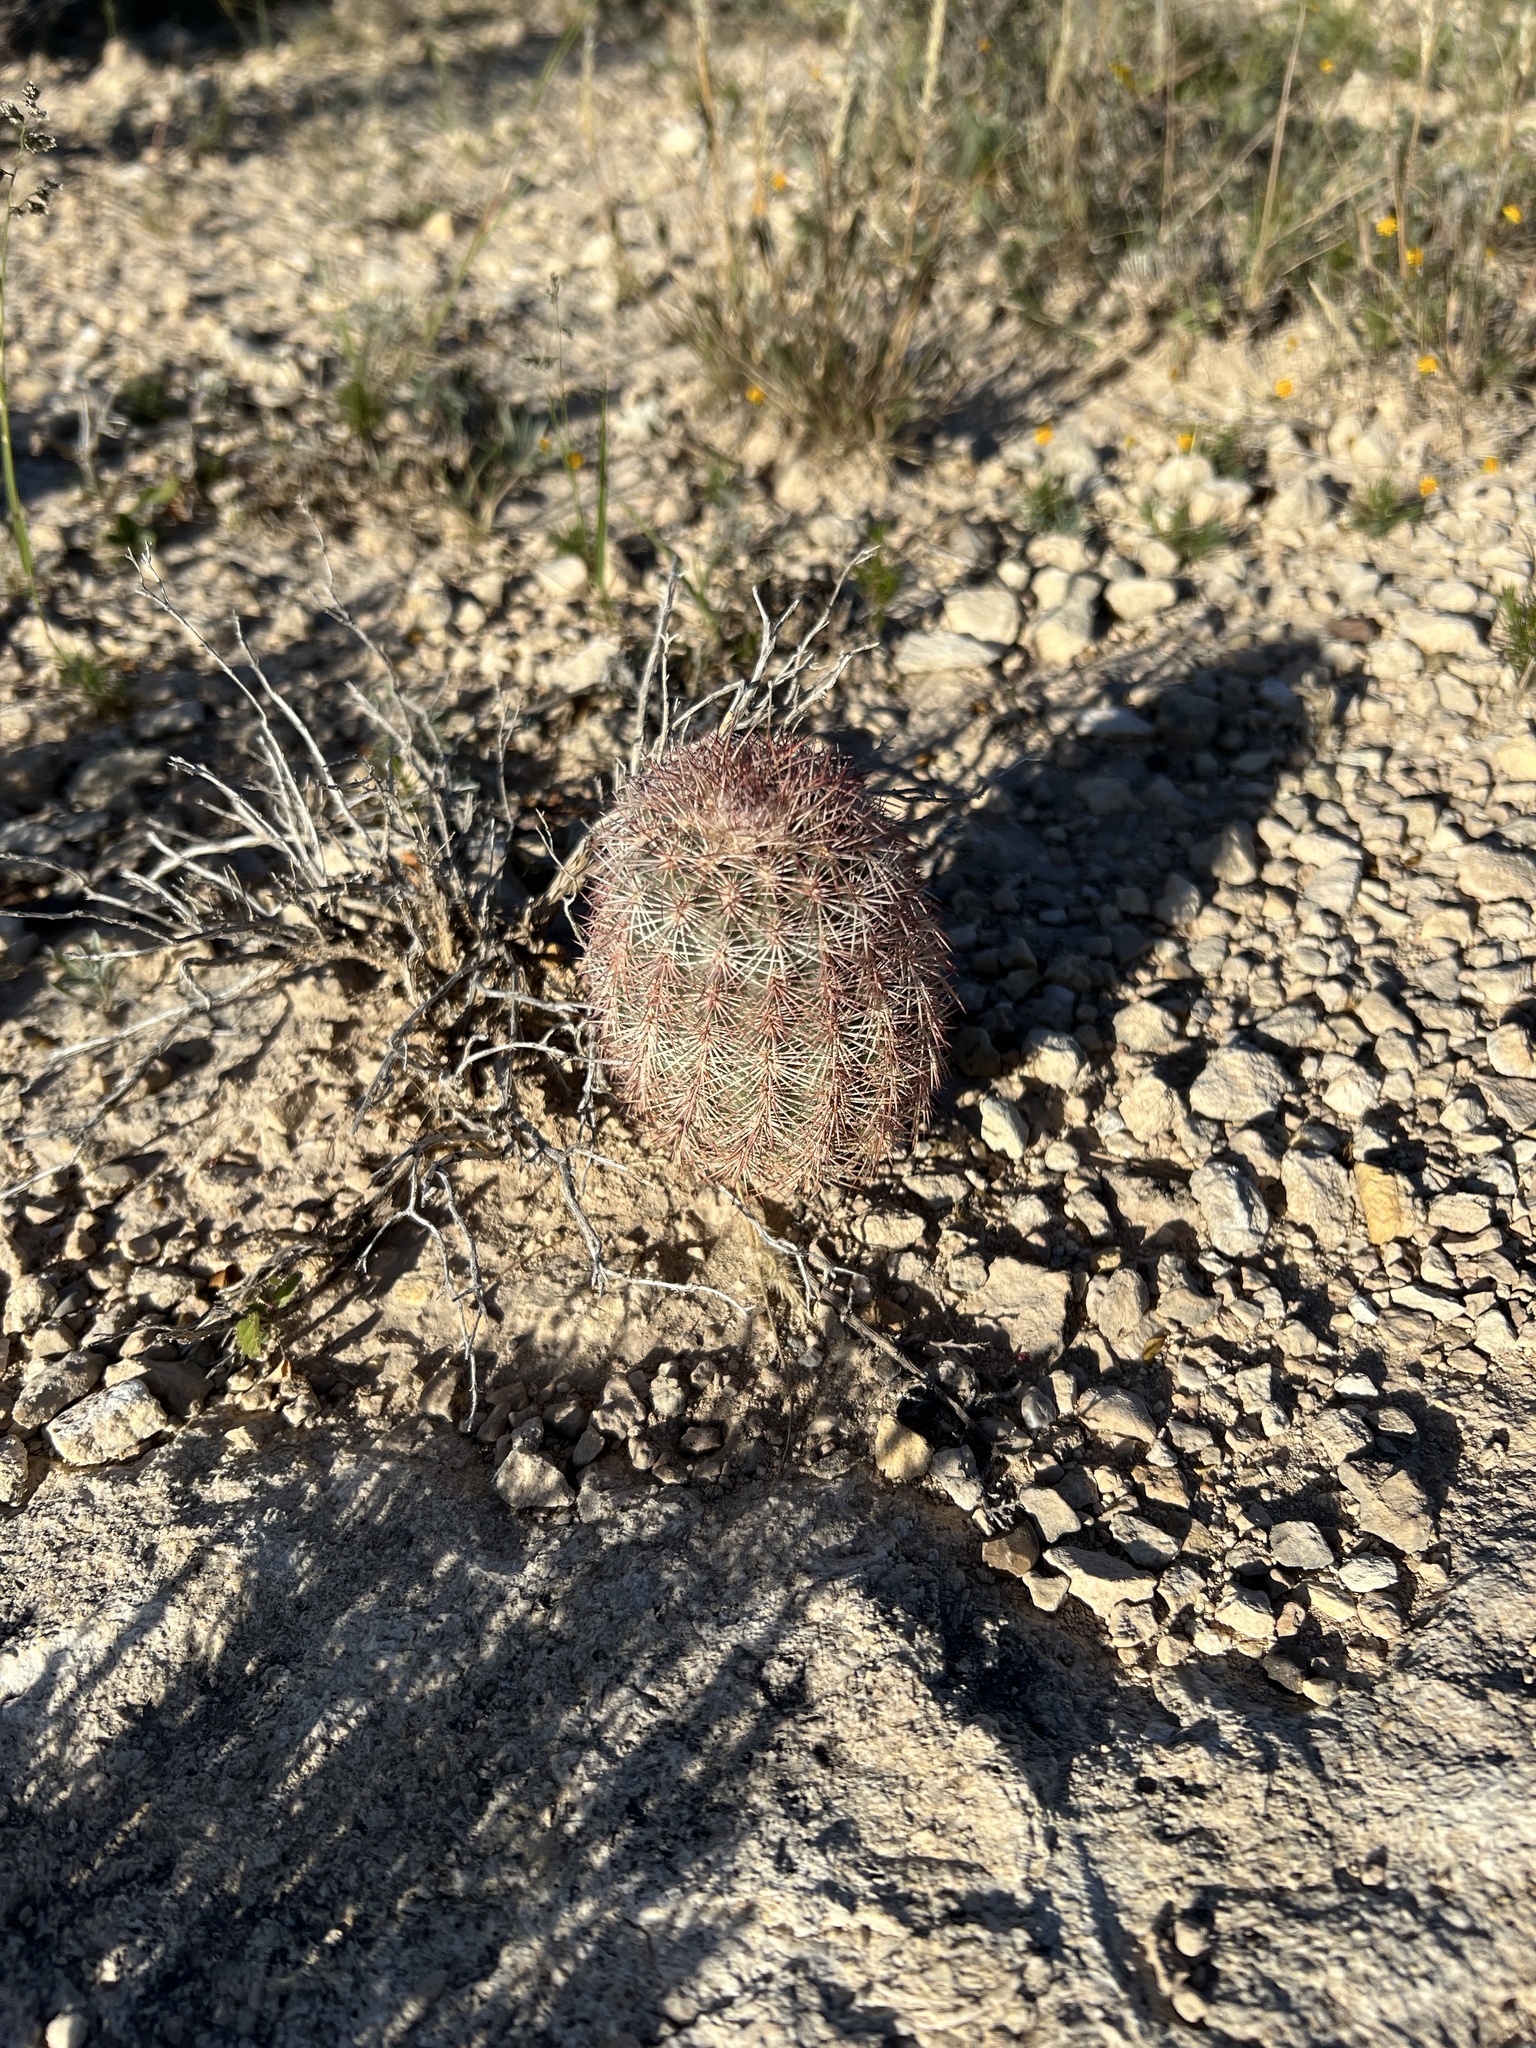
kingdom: Plantae
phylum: Tracheophyta
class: Magnoliopsida
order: Caryophyllales
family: Cactaceae
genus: Echinocereus
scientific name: Echinocereus dasyacanthus
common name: Spiny hedgehog cactus
